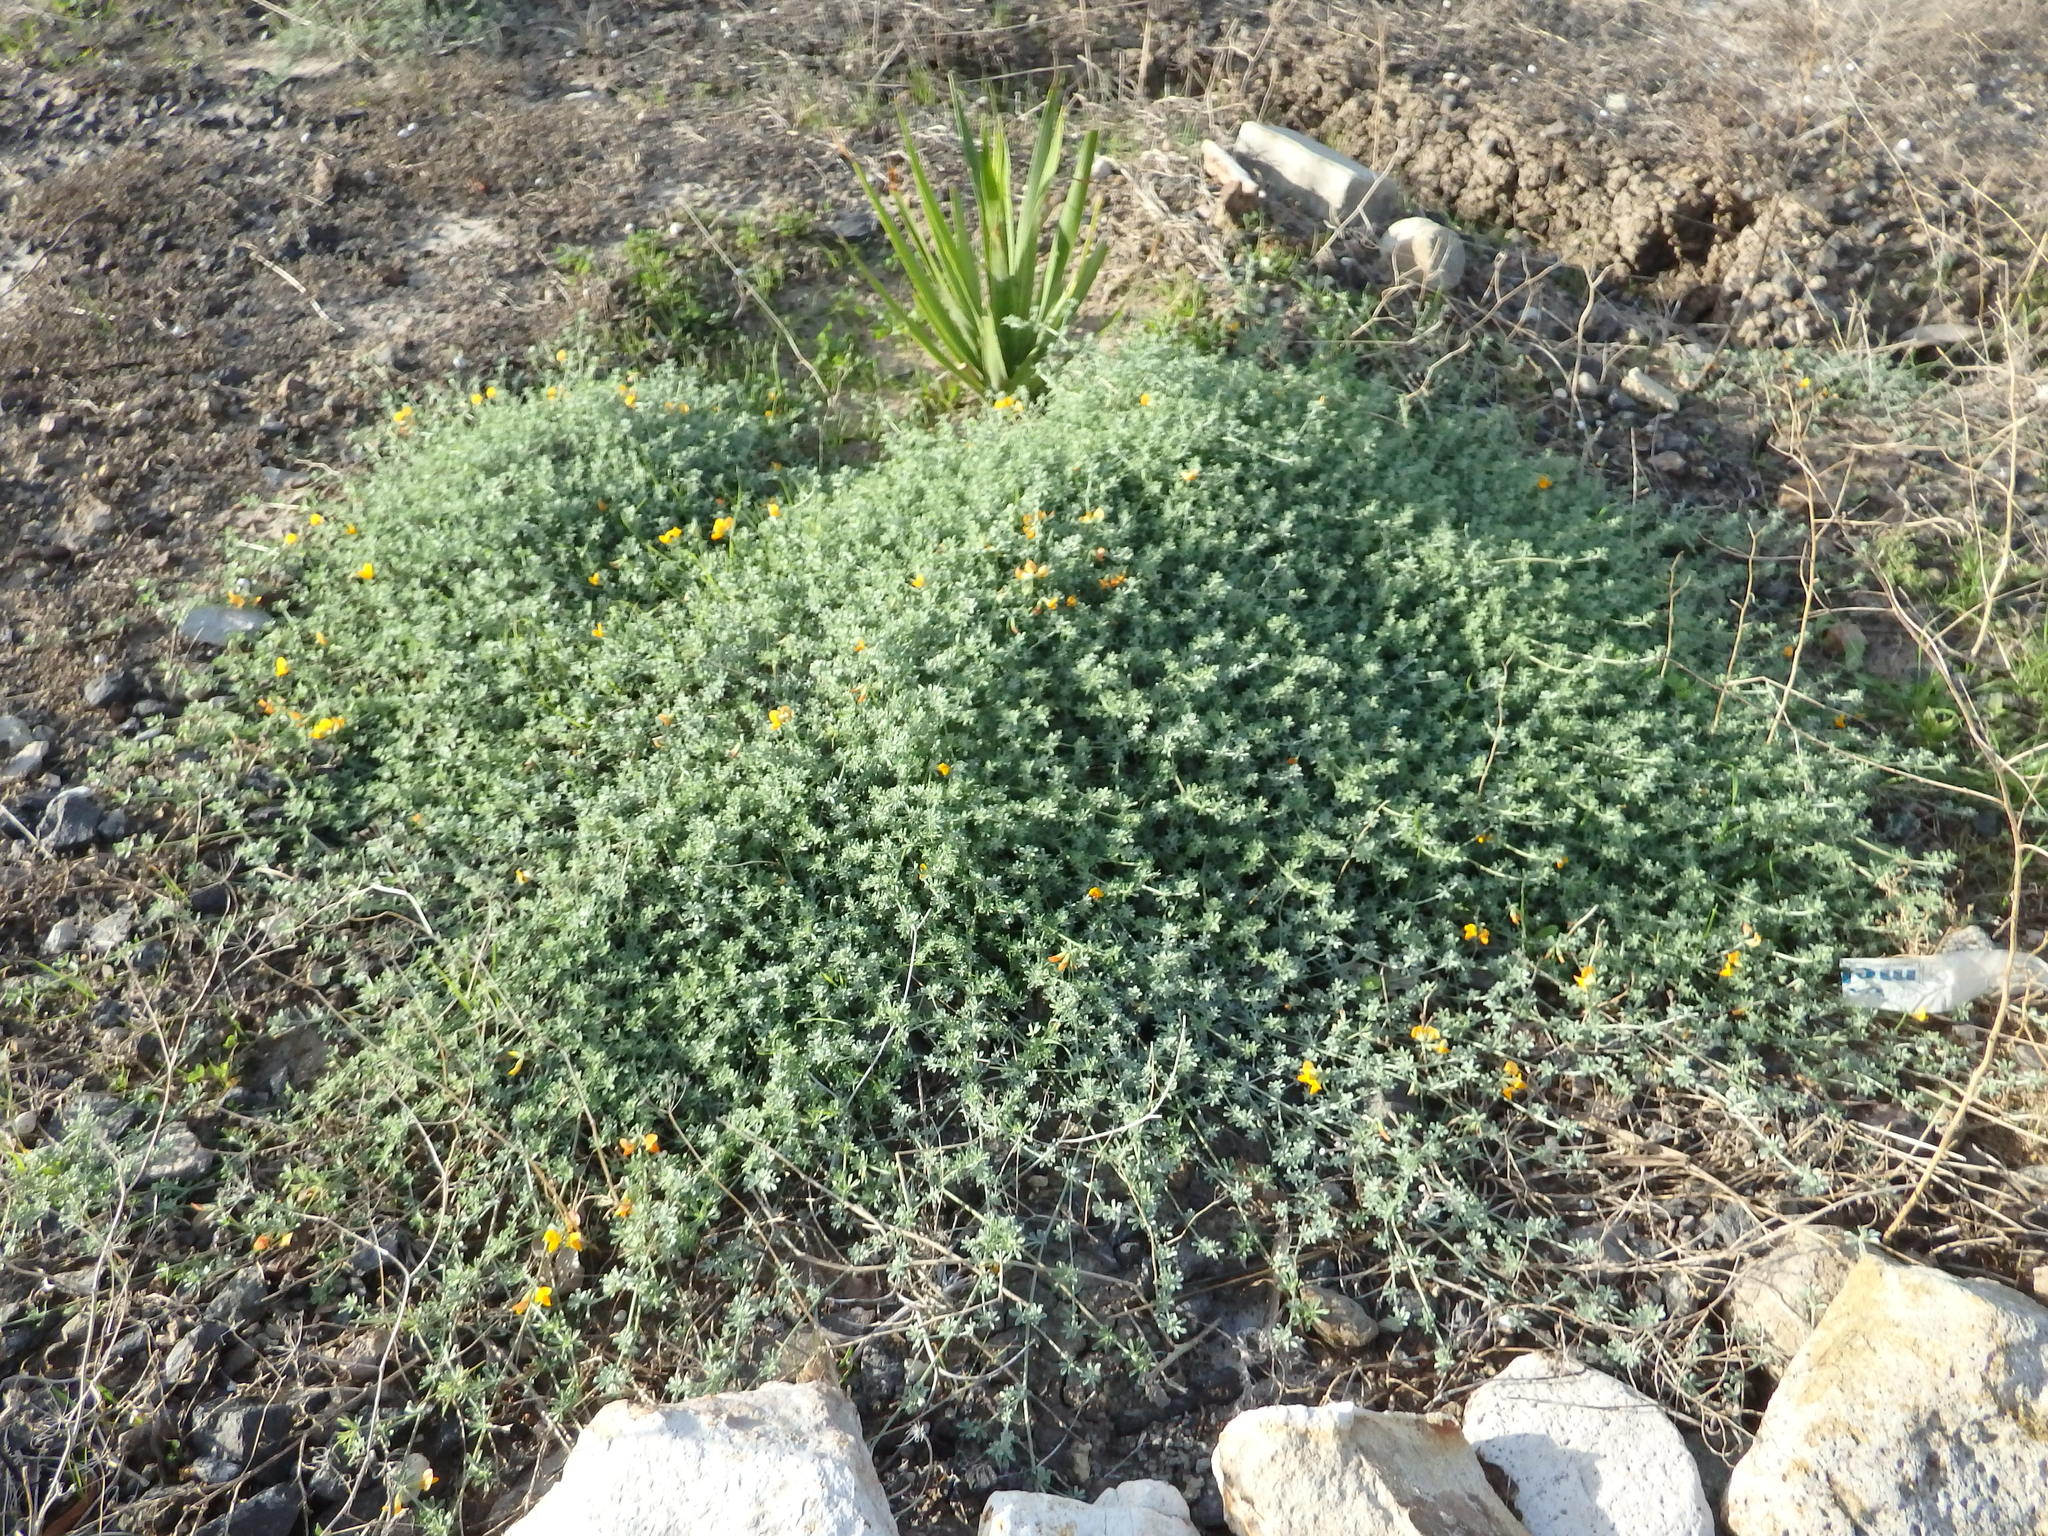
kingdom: Plantae
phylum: Tracheophyta
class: Magnoliopsida
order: Fabales
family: Fabaceae
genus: Lotus
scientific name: Lotus glaucus
